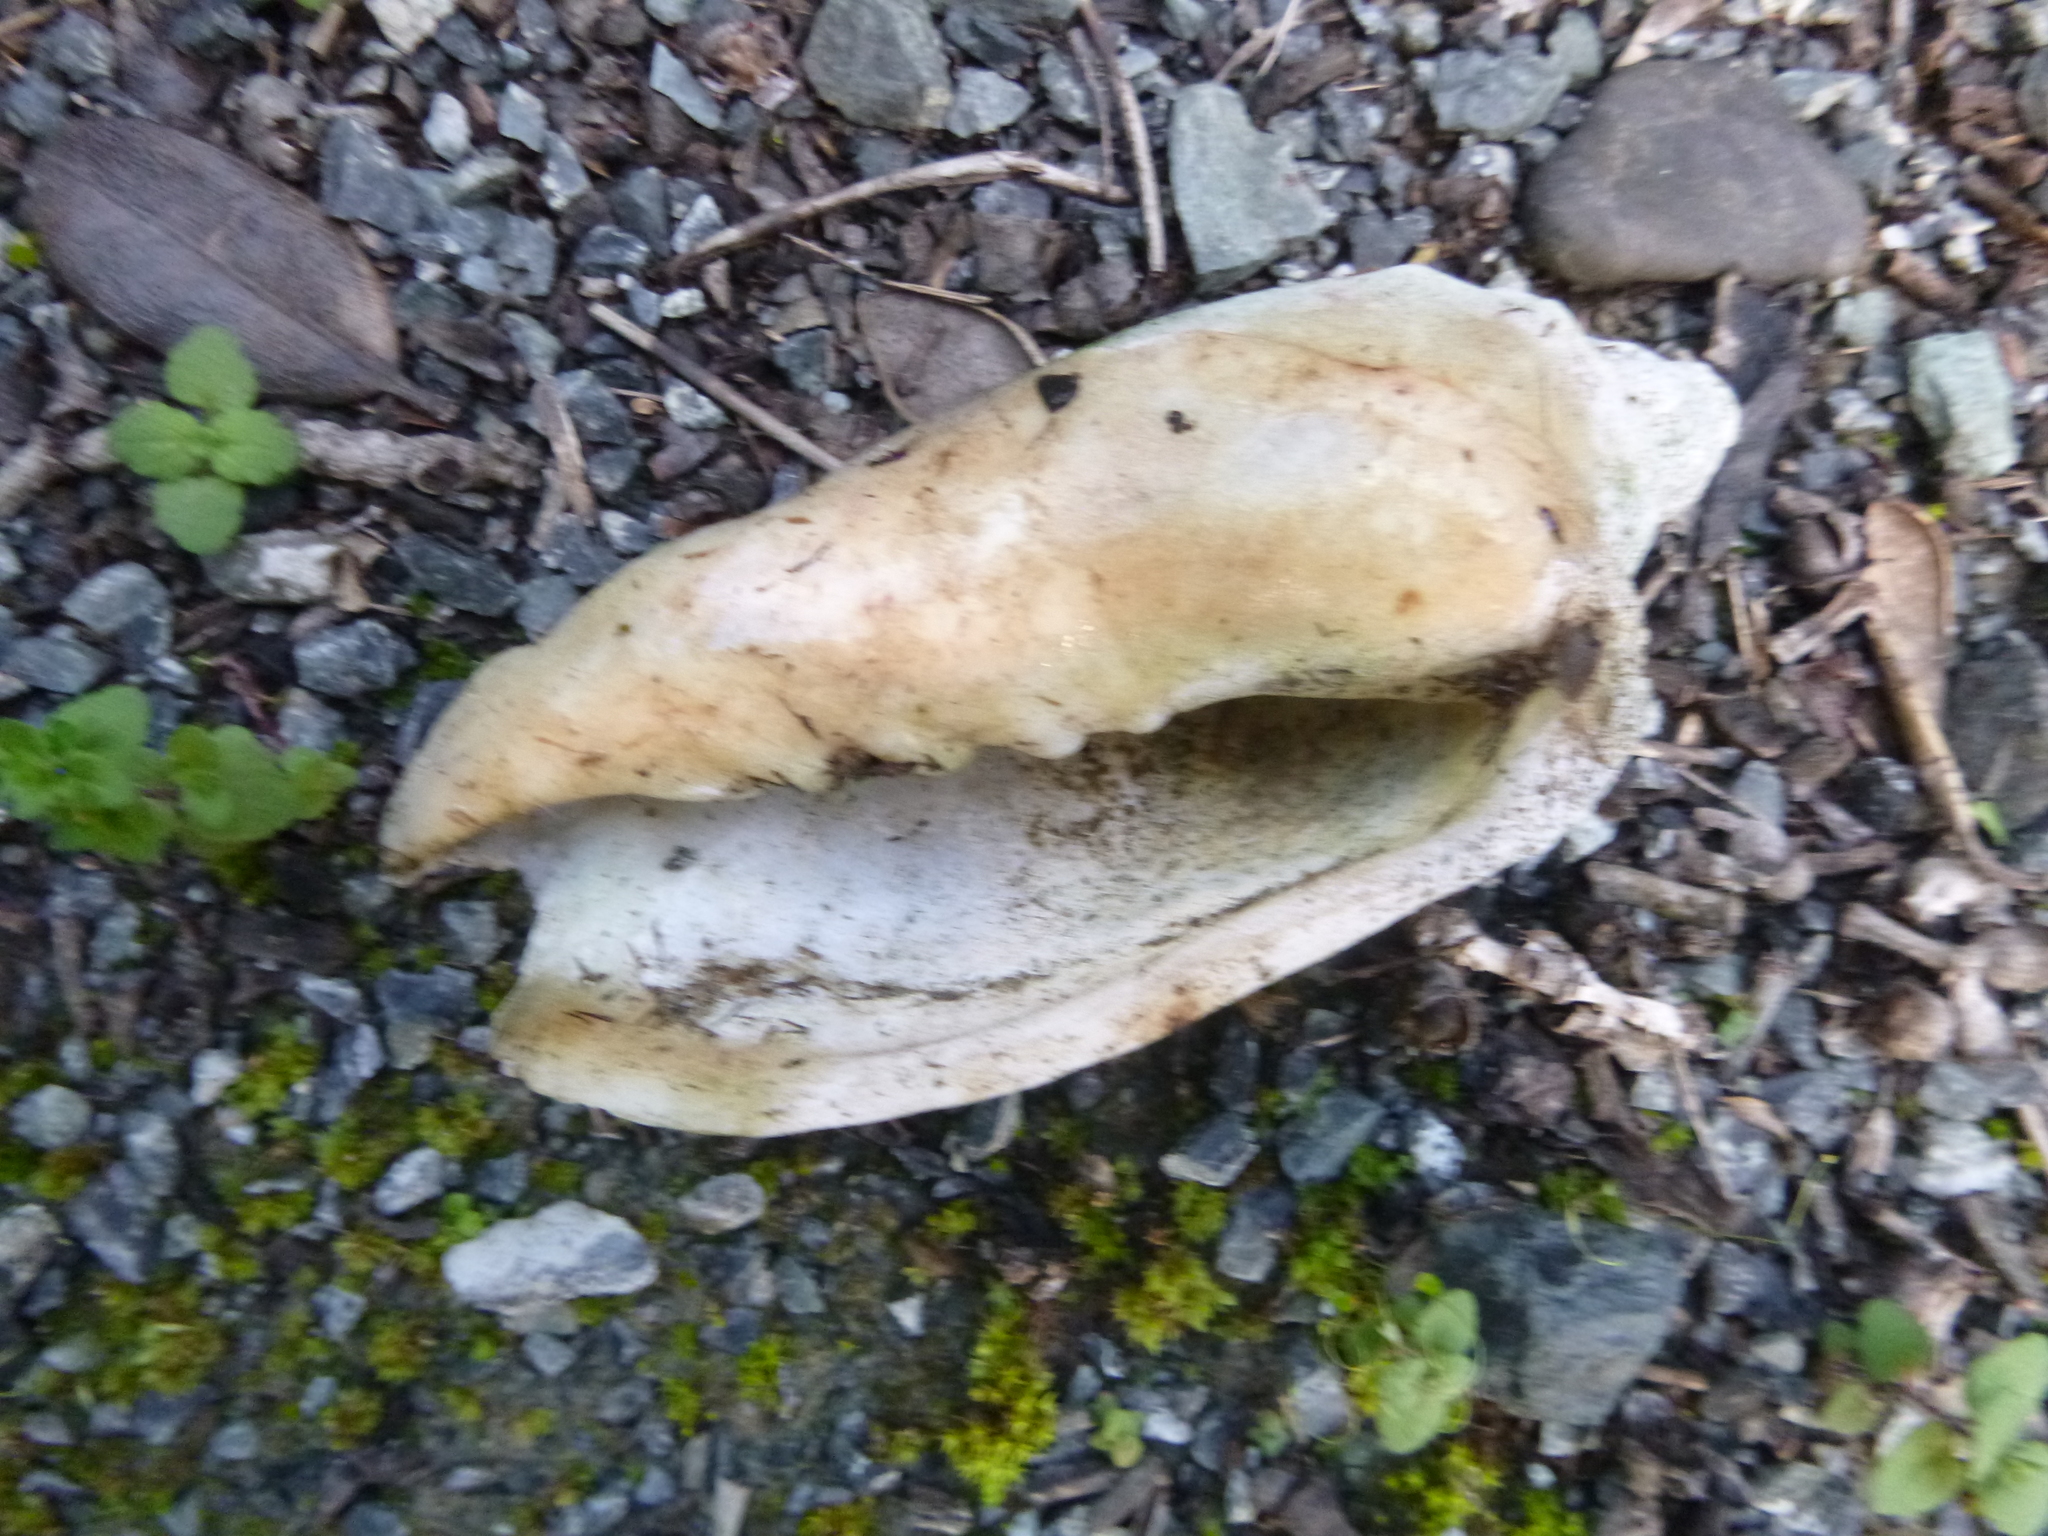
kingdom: Animalia
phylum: Mollusca
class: Gastropoda
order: Neogastropoda
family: Volutidae
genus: Alcithoe
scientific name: Alcithoe arabica
